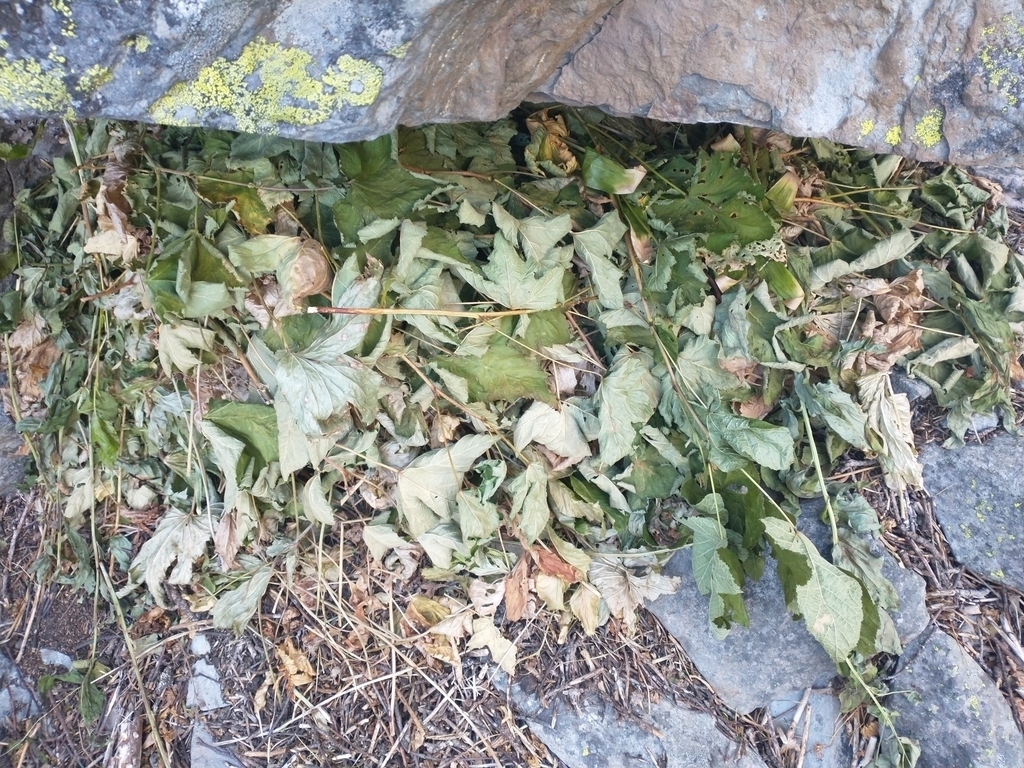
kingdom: Animalia
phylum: Chordata
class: Mammalia
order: Lagomorpha
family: Ochotonidae
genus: Ochotona
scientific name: Ochotona princeps
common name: American pika
